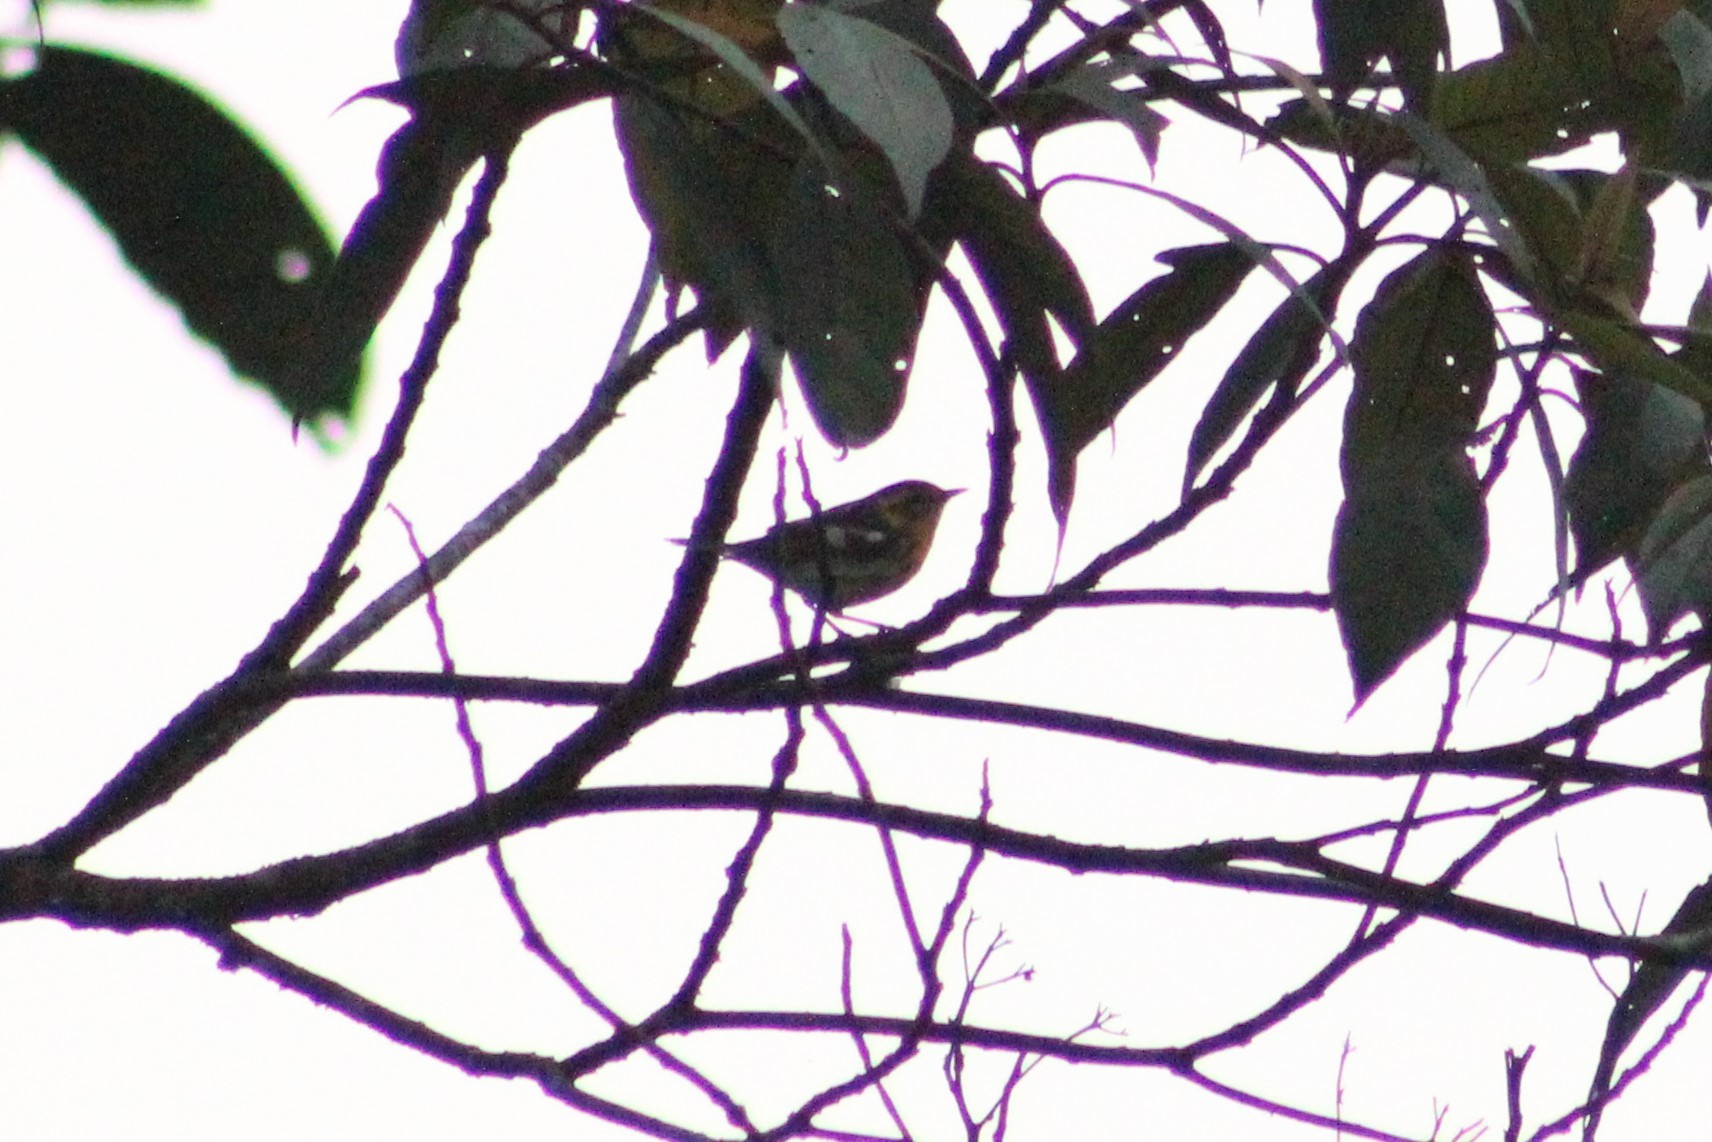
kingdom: Animalia
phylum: Chordata
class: Aves
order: Passeriformes
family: Parulidae
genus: Setophaga
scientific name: Setophaga fusca
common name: Blackburnian warbler
